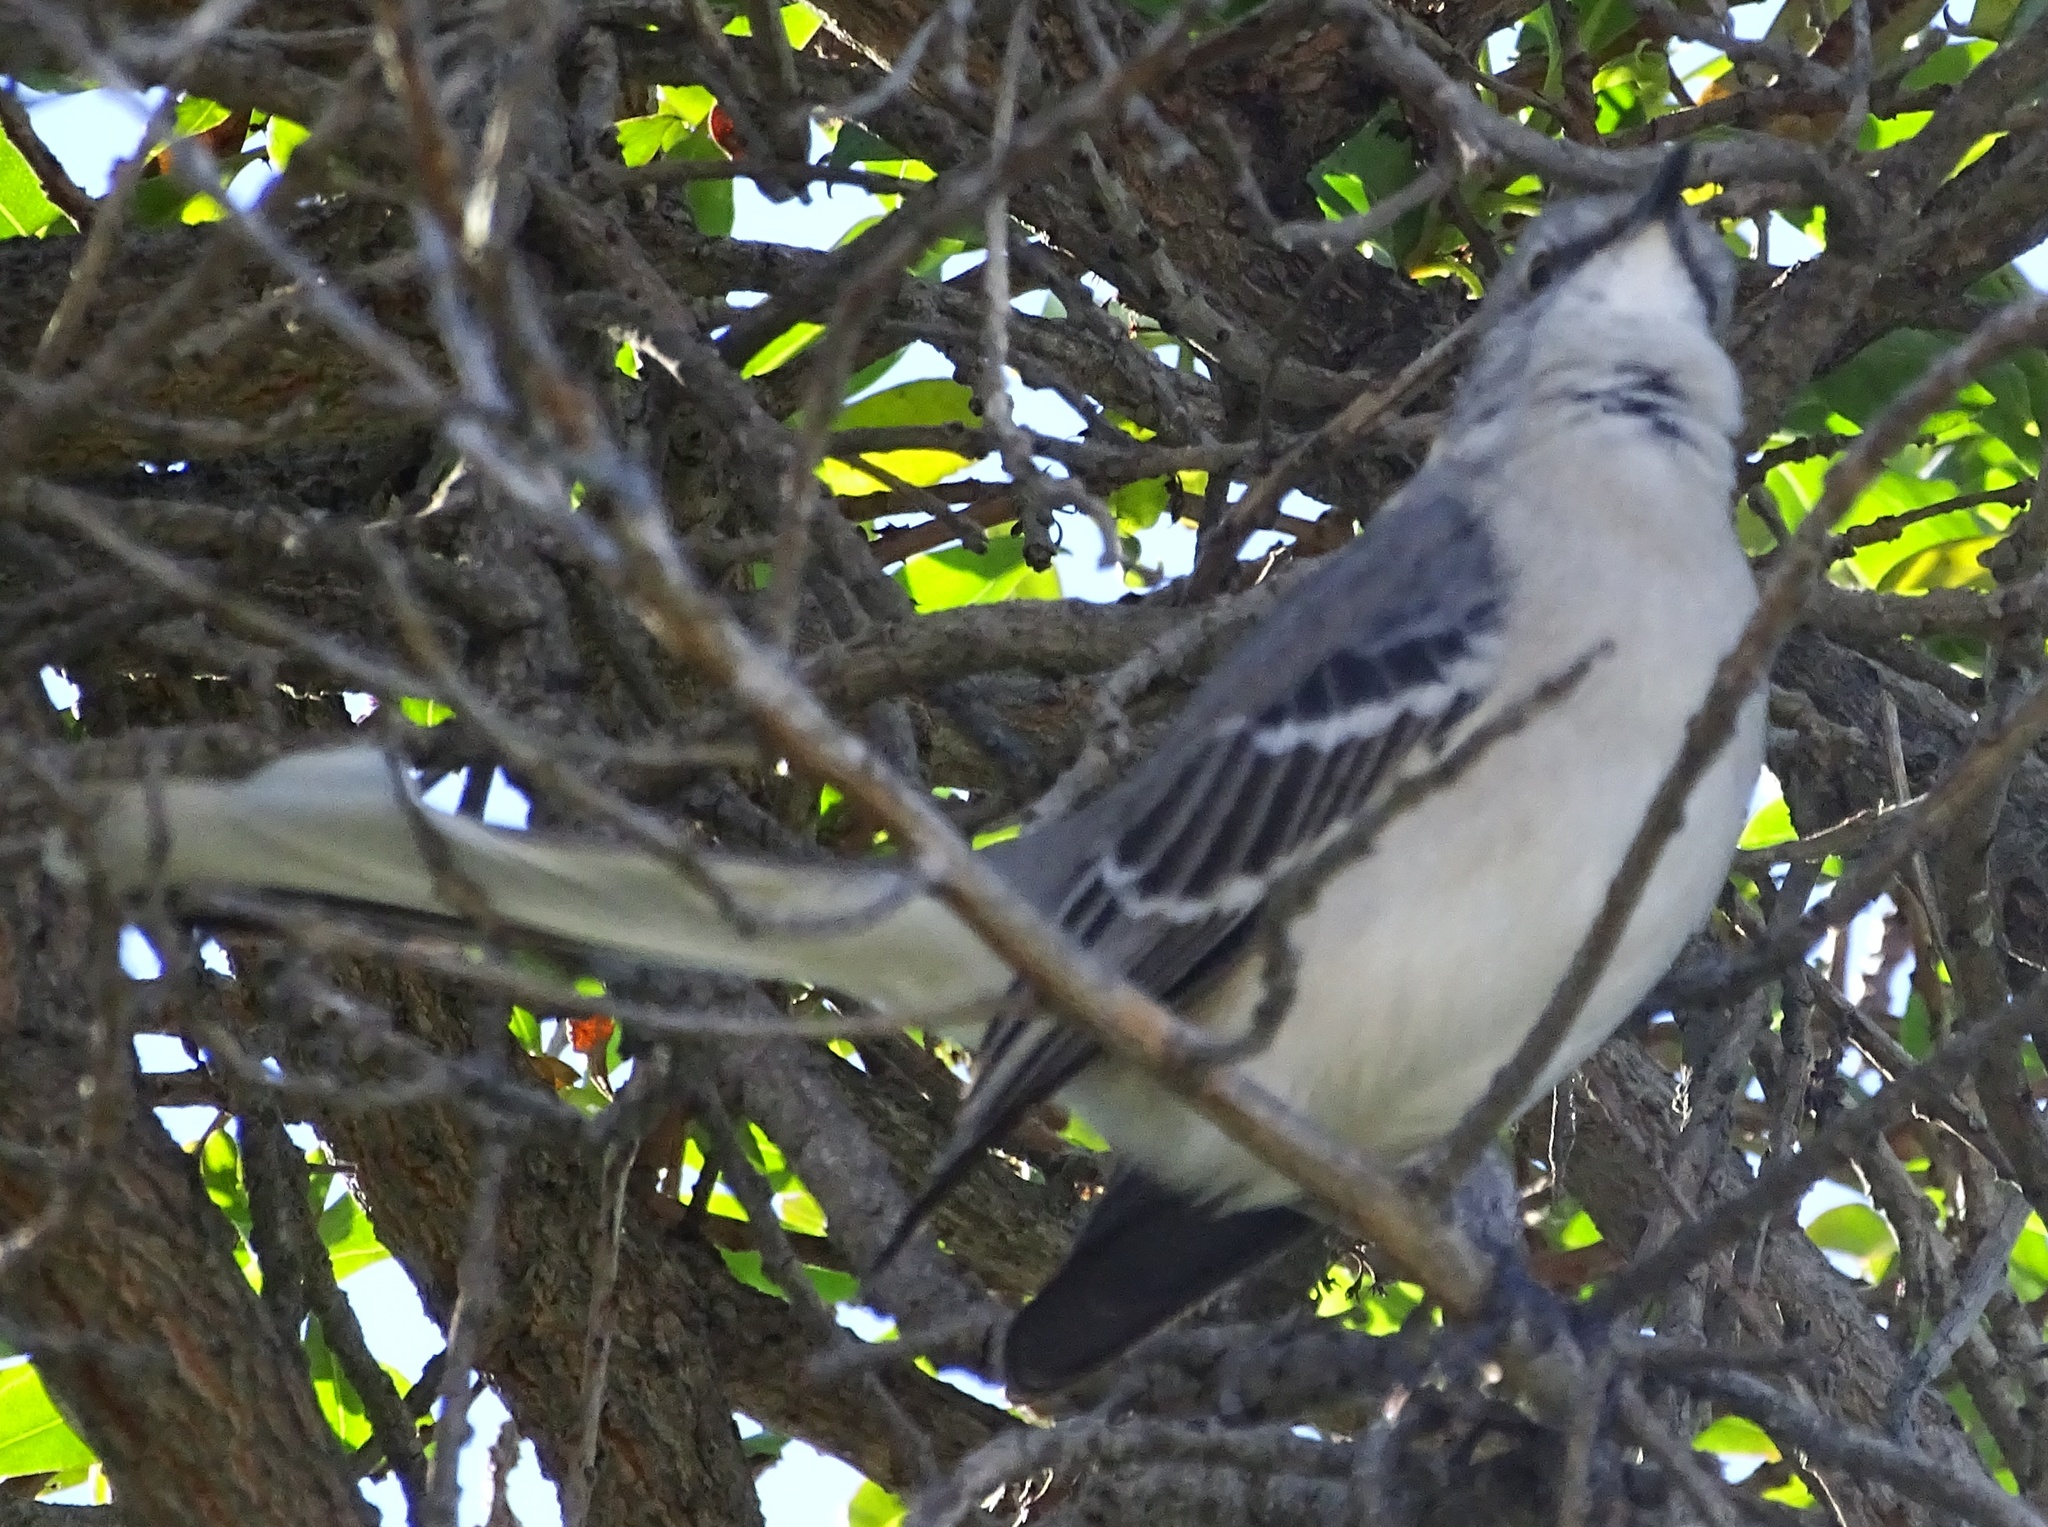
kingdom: Animalia
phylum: Chordata
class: Aves
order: Passeriformes
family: Mimidae
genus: Mimus
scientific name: Mimus polyglottos
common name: Northern mockingbird
